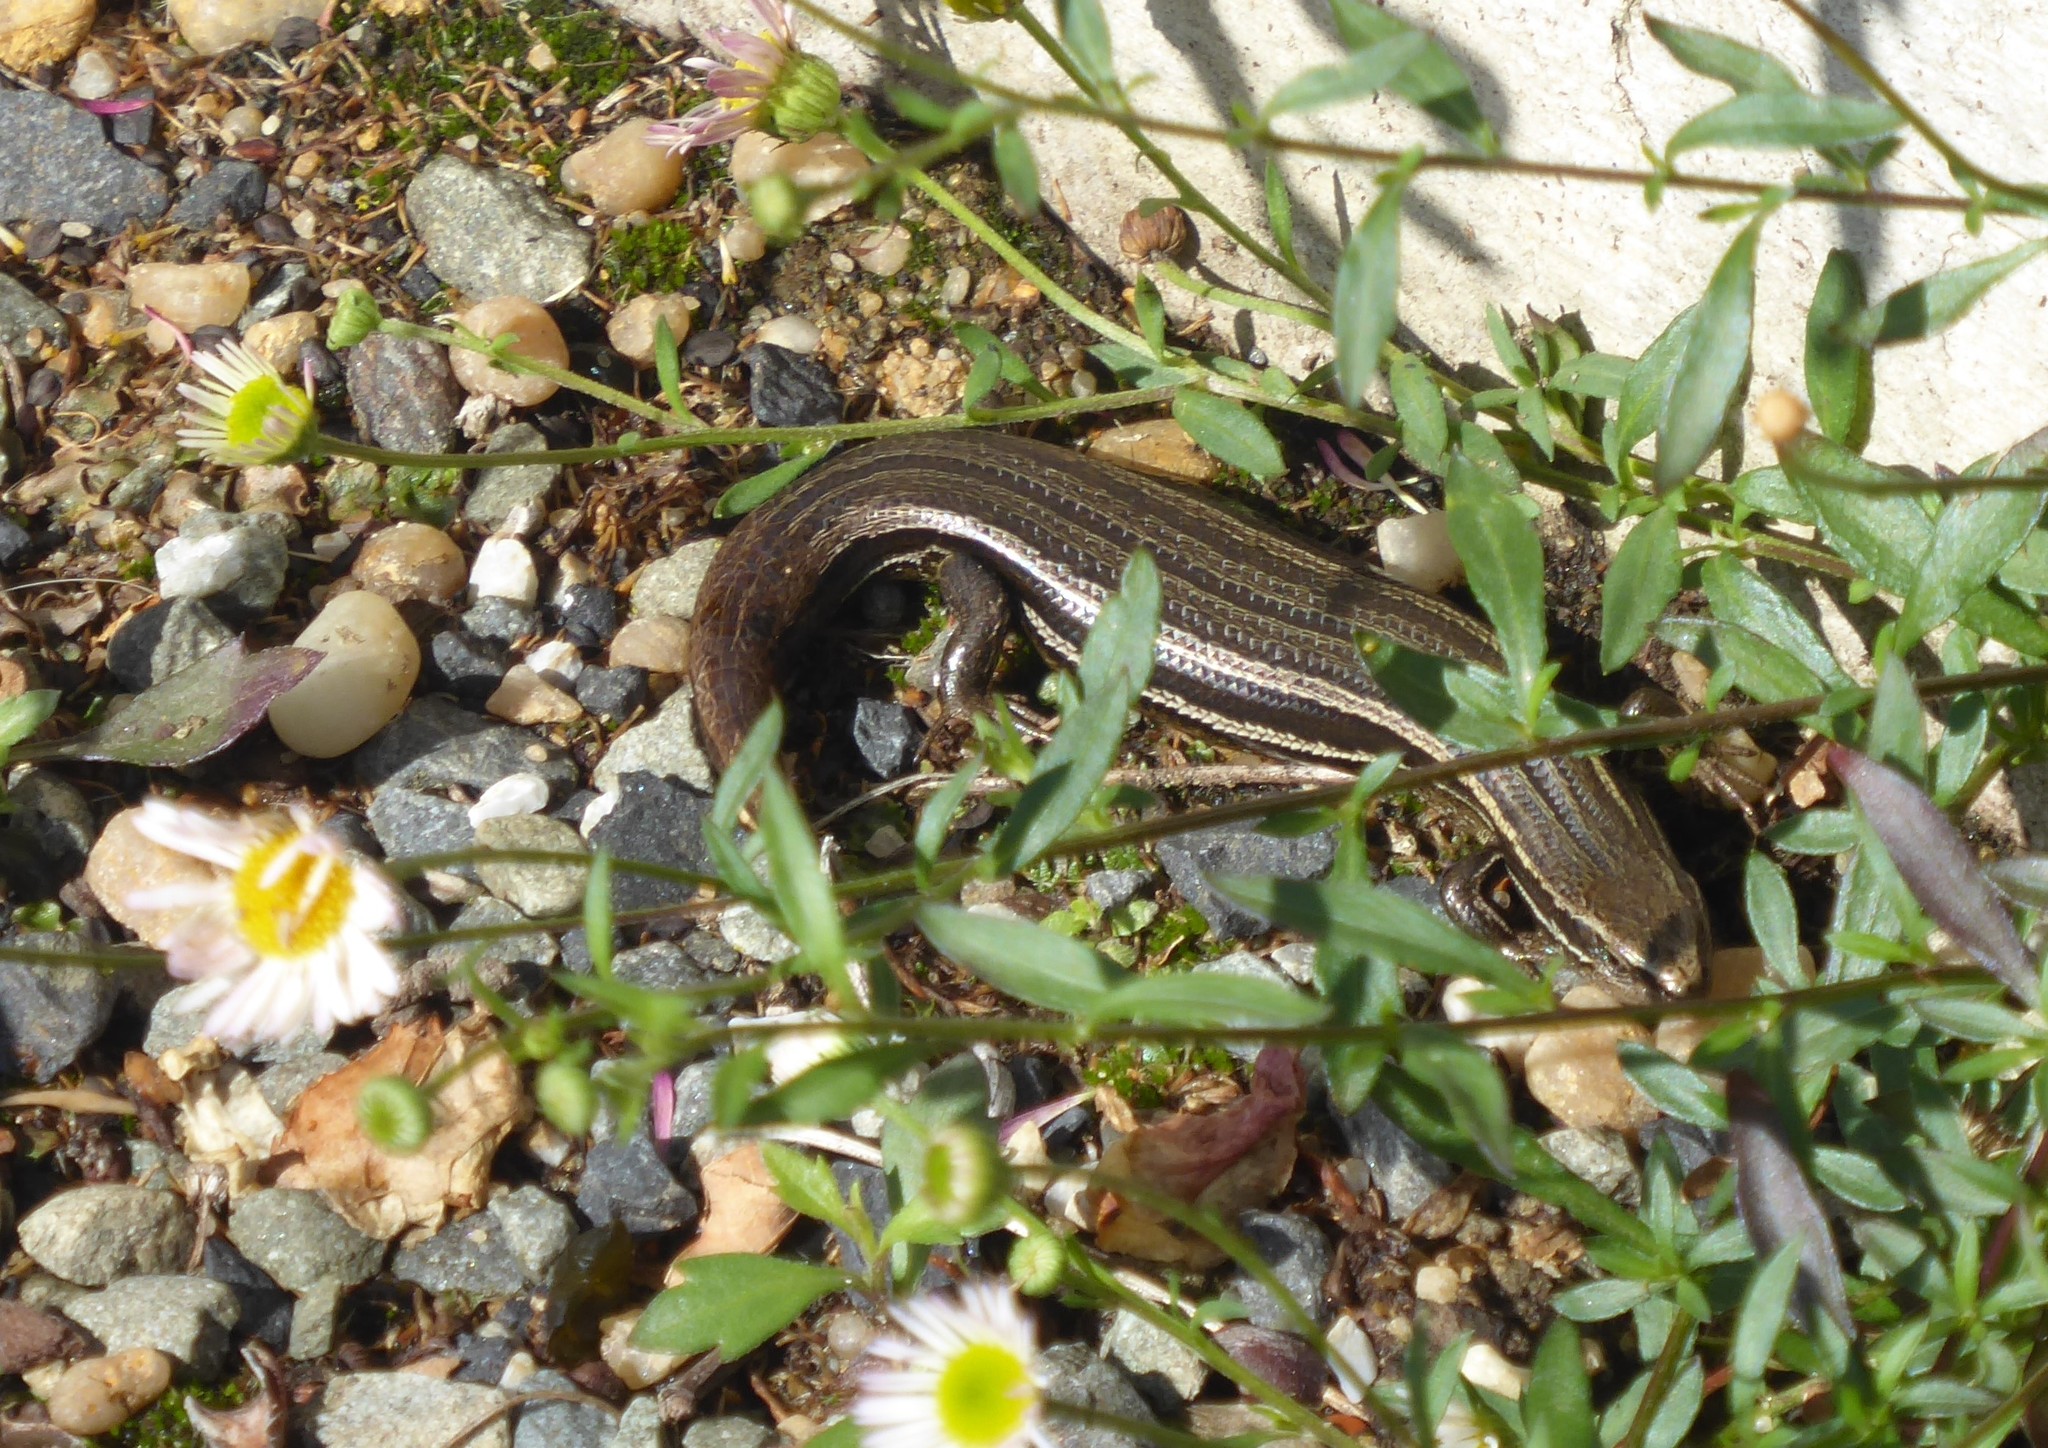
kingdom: Animalia
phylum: Chordata
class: Squamata
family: Scincidae
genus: Oligosoma
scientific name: Oligosoma polychroma
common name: Common new zealand skink
